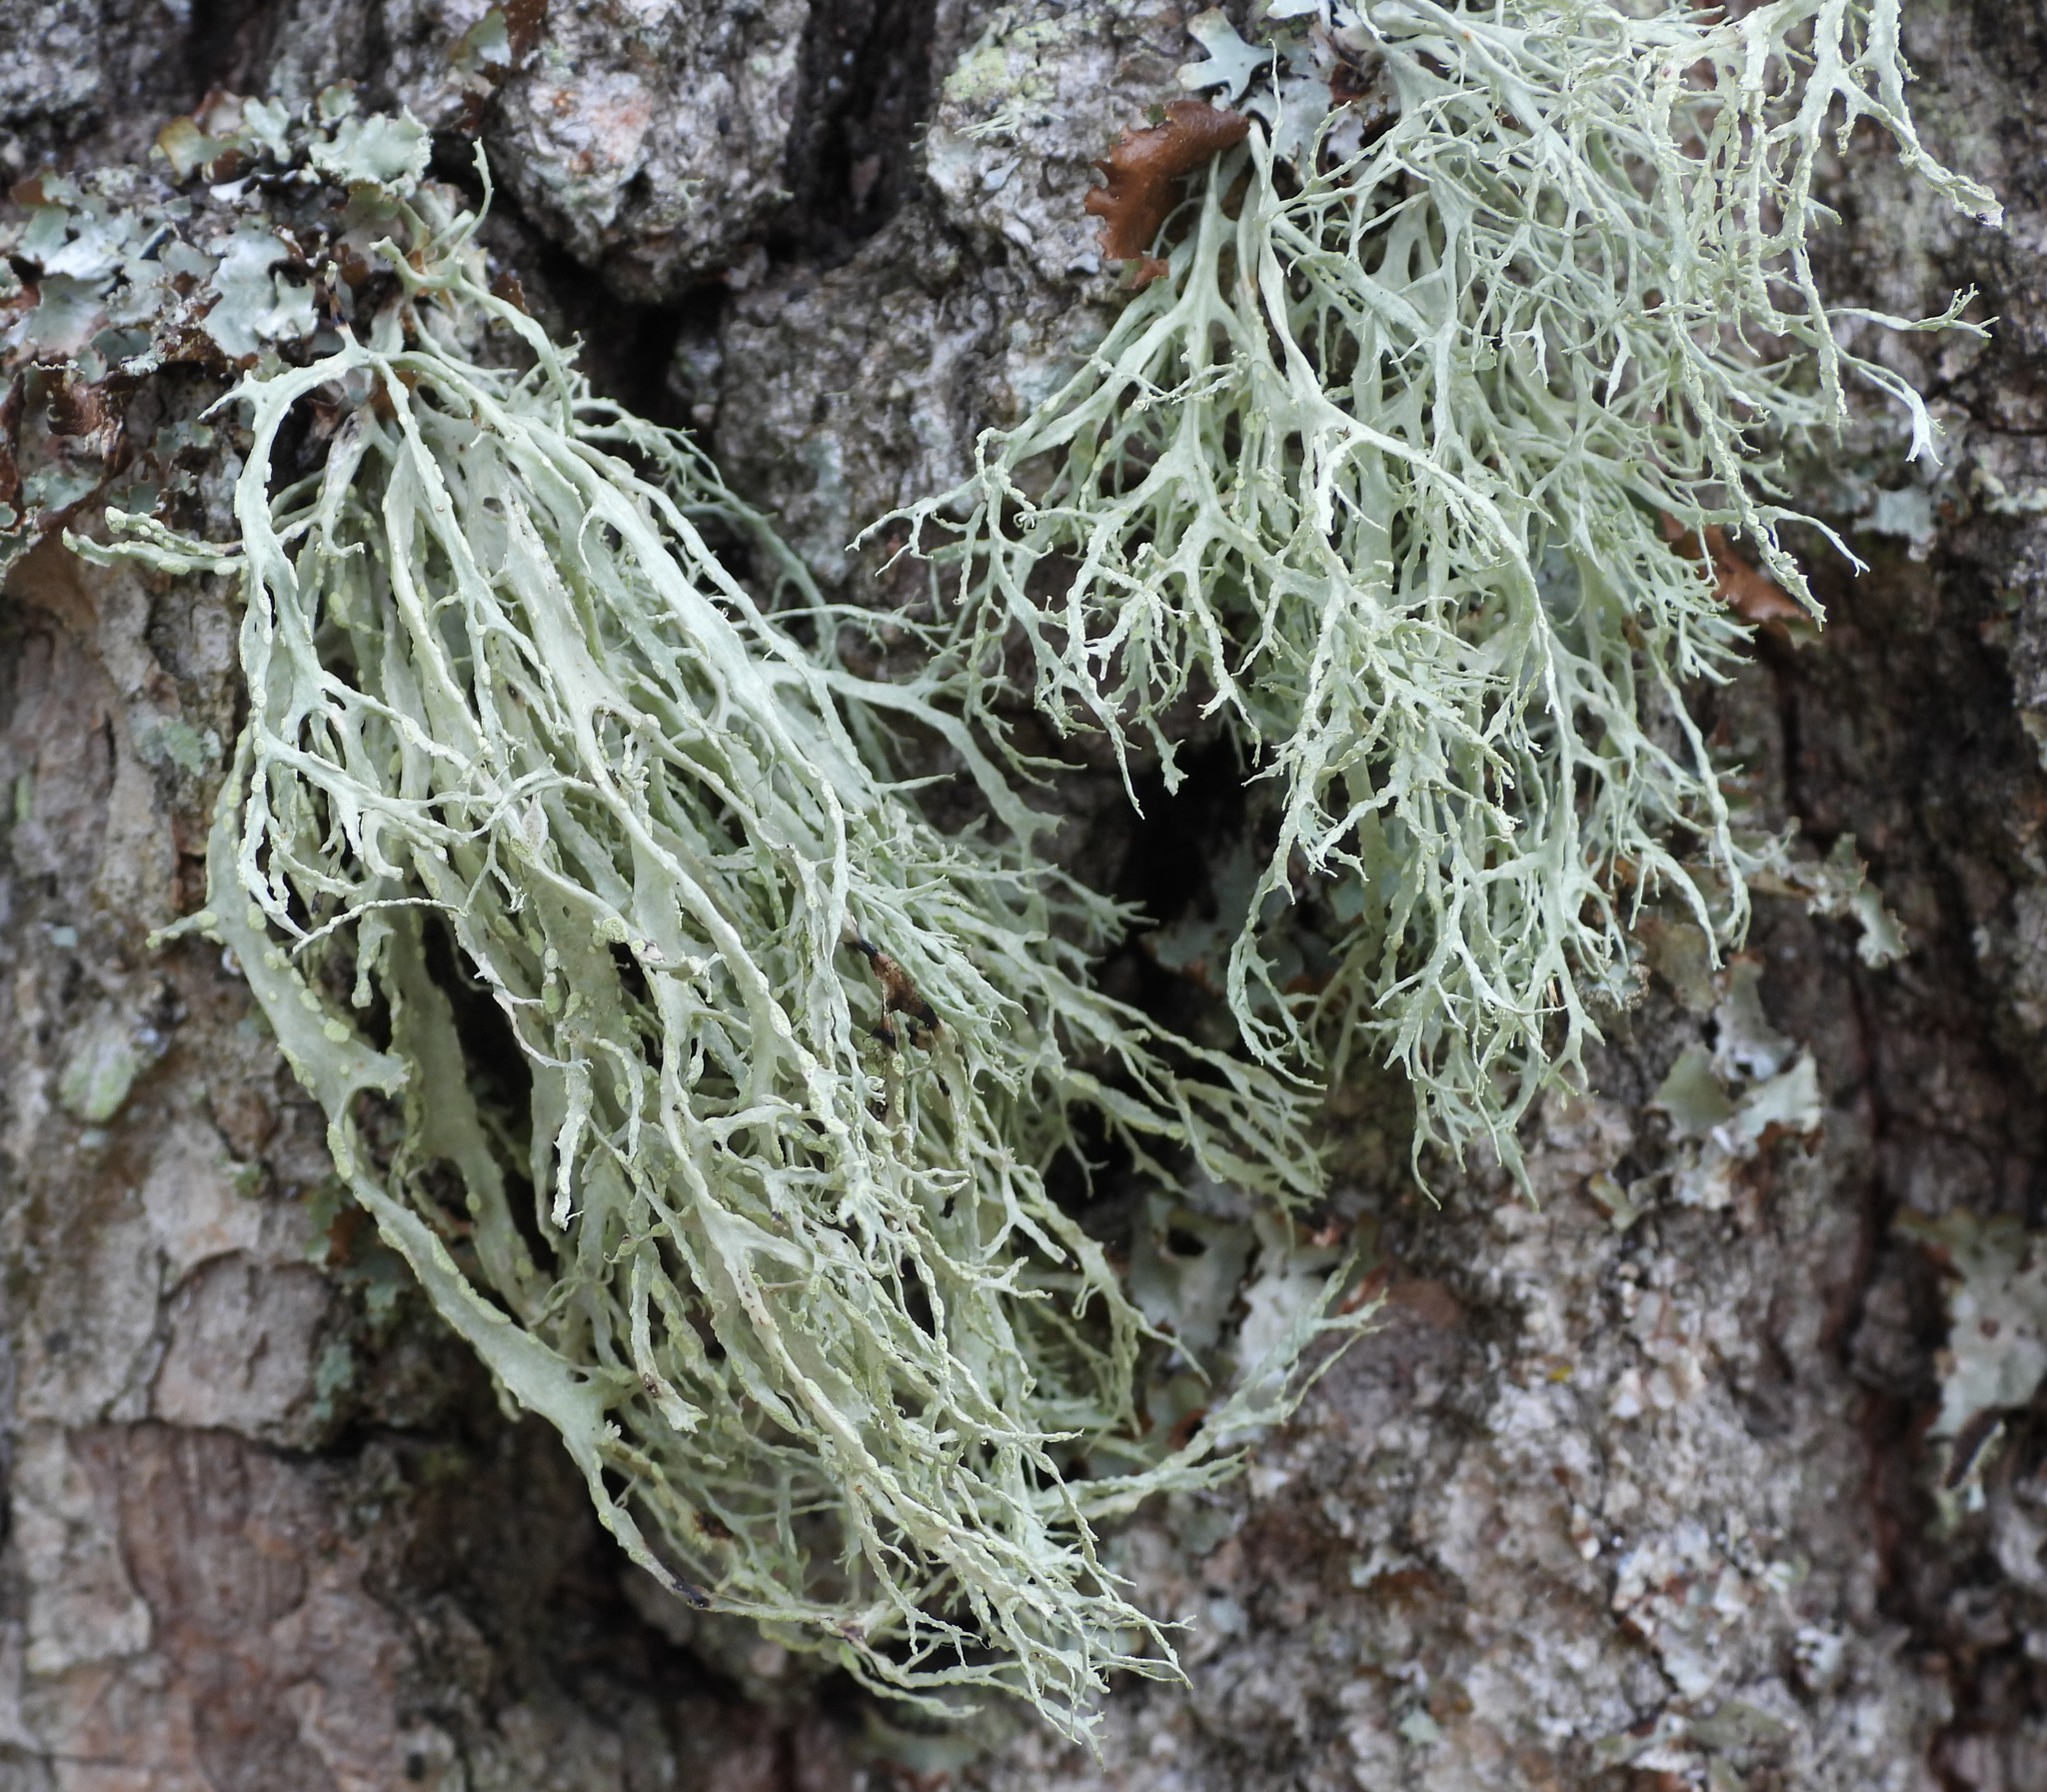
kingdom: Fungi
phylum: Ascomycota
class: Lecanoromycetes
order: Lecanorales
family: Ramalinaceae
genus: Ramalina
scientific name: Ramalina farinacea
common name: Farinose cartilage lichen
